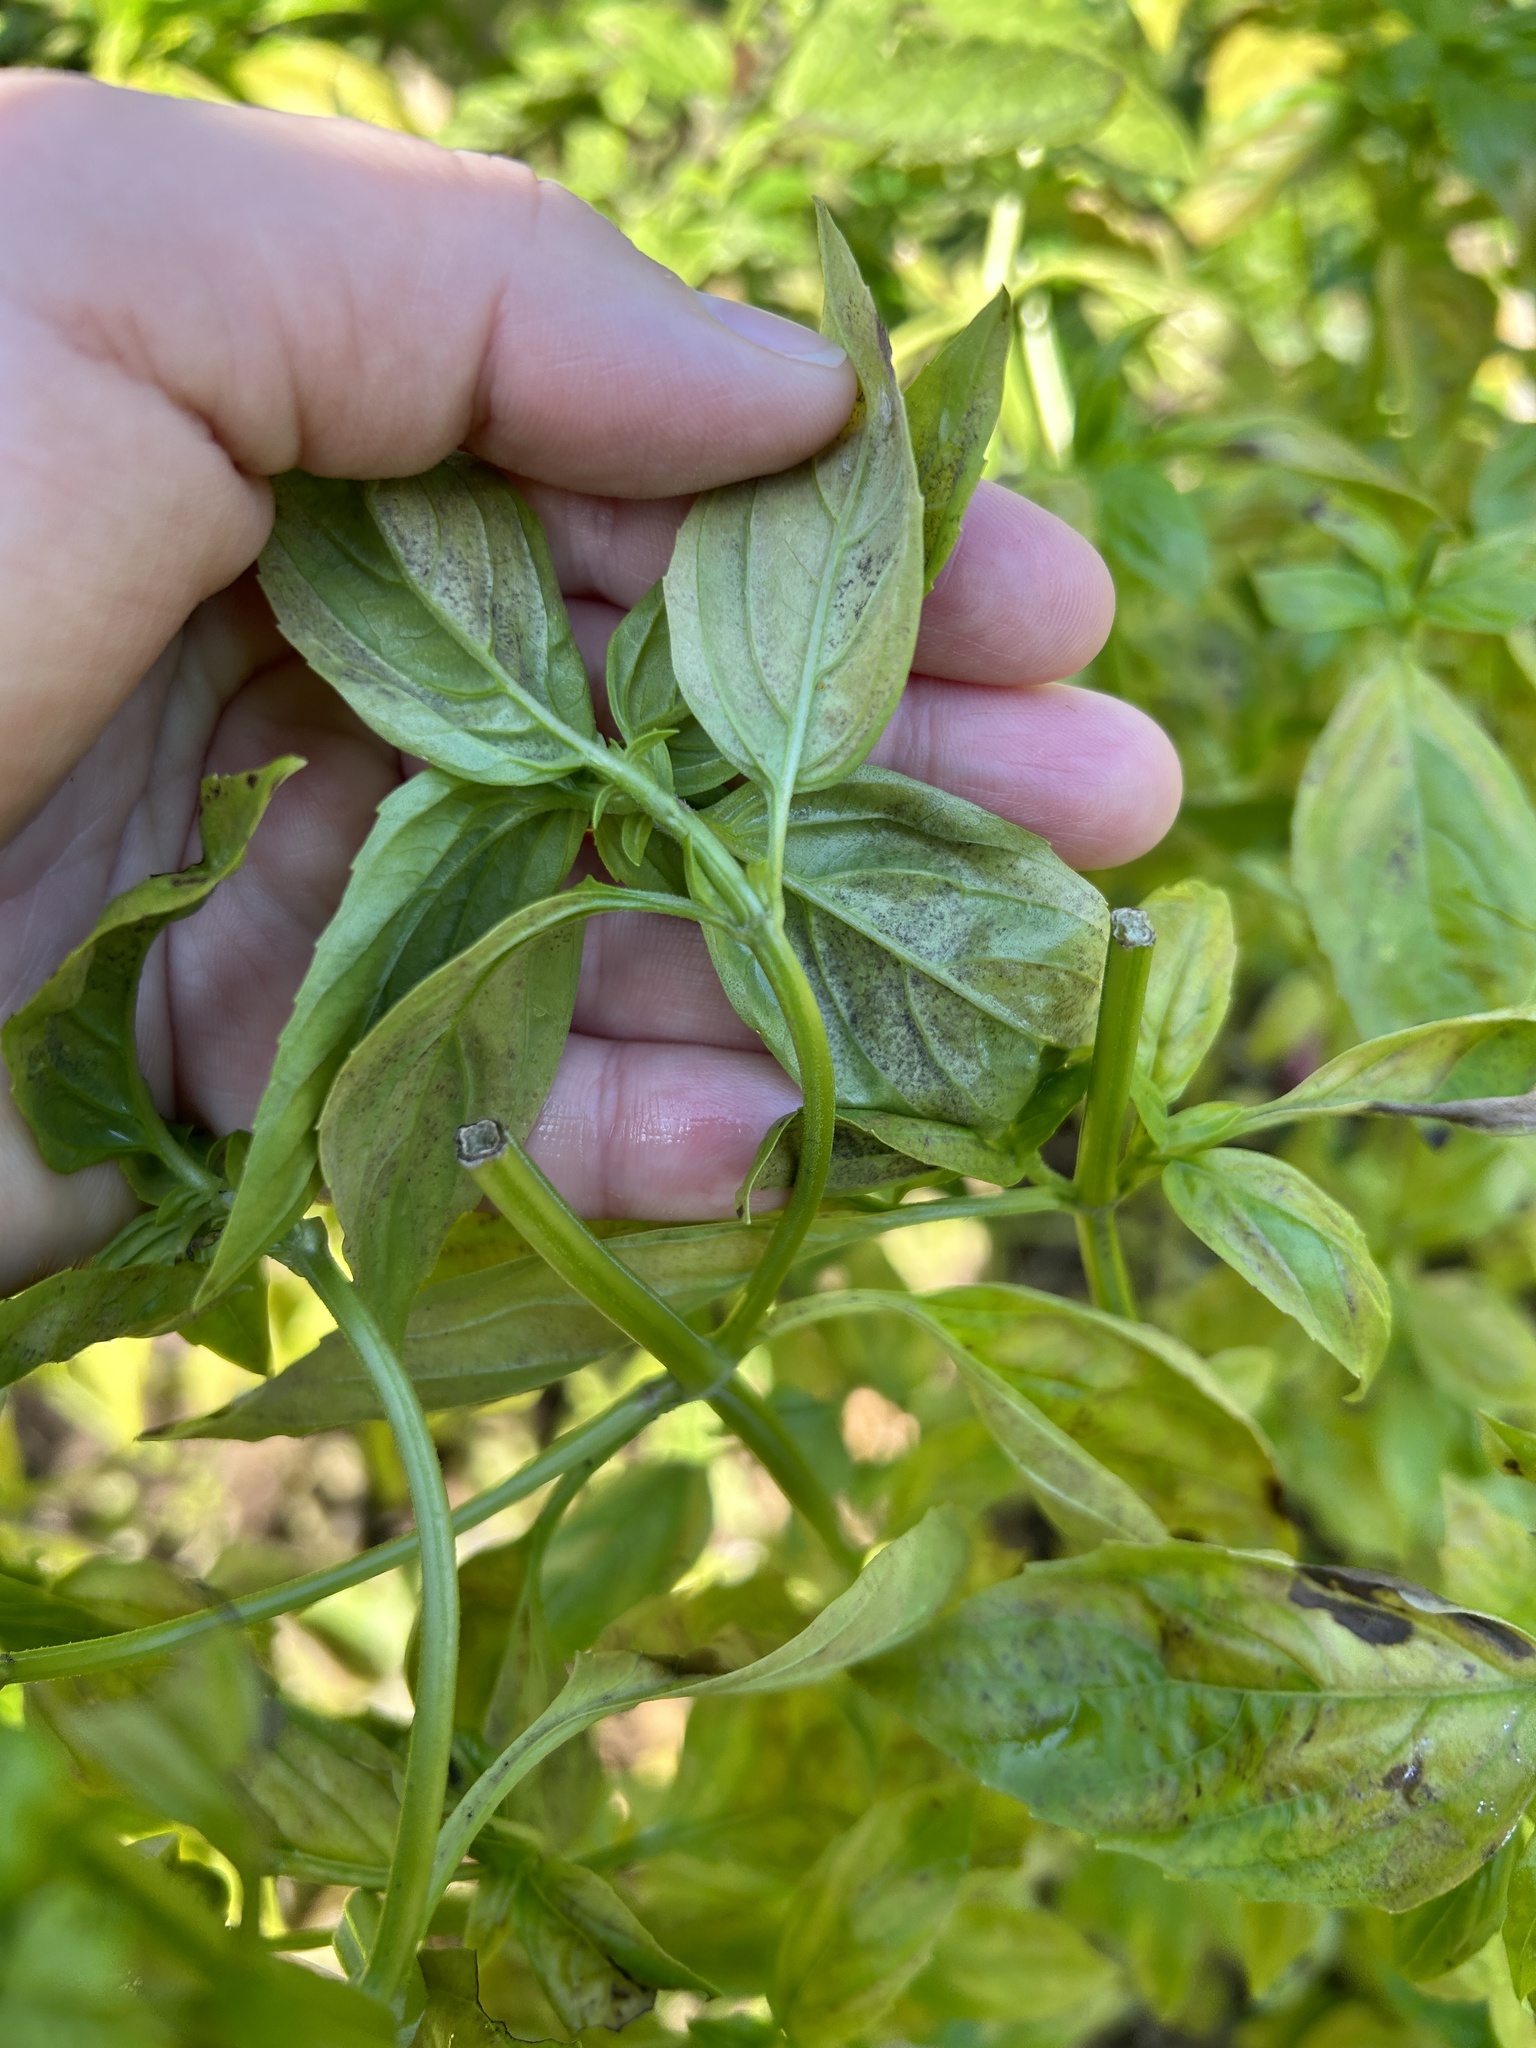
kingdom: Chromista
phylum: Oomycota
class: Peronosporea
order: Peronosporales
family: Peronosporaceae
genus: Peronospora
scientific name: Peronospora belbahrii
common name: Basil downy mildew
